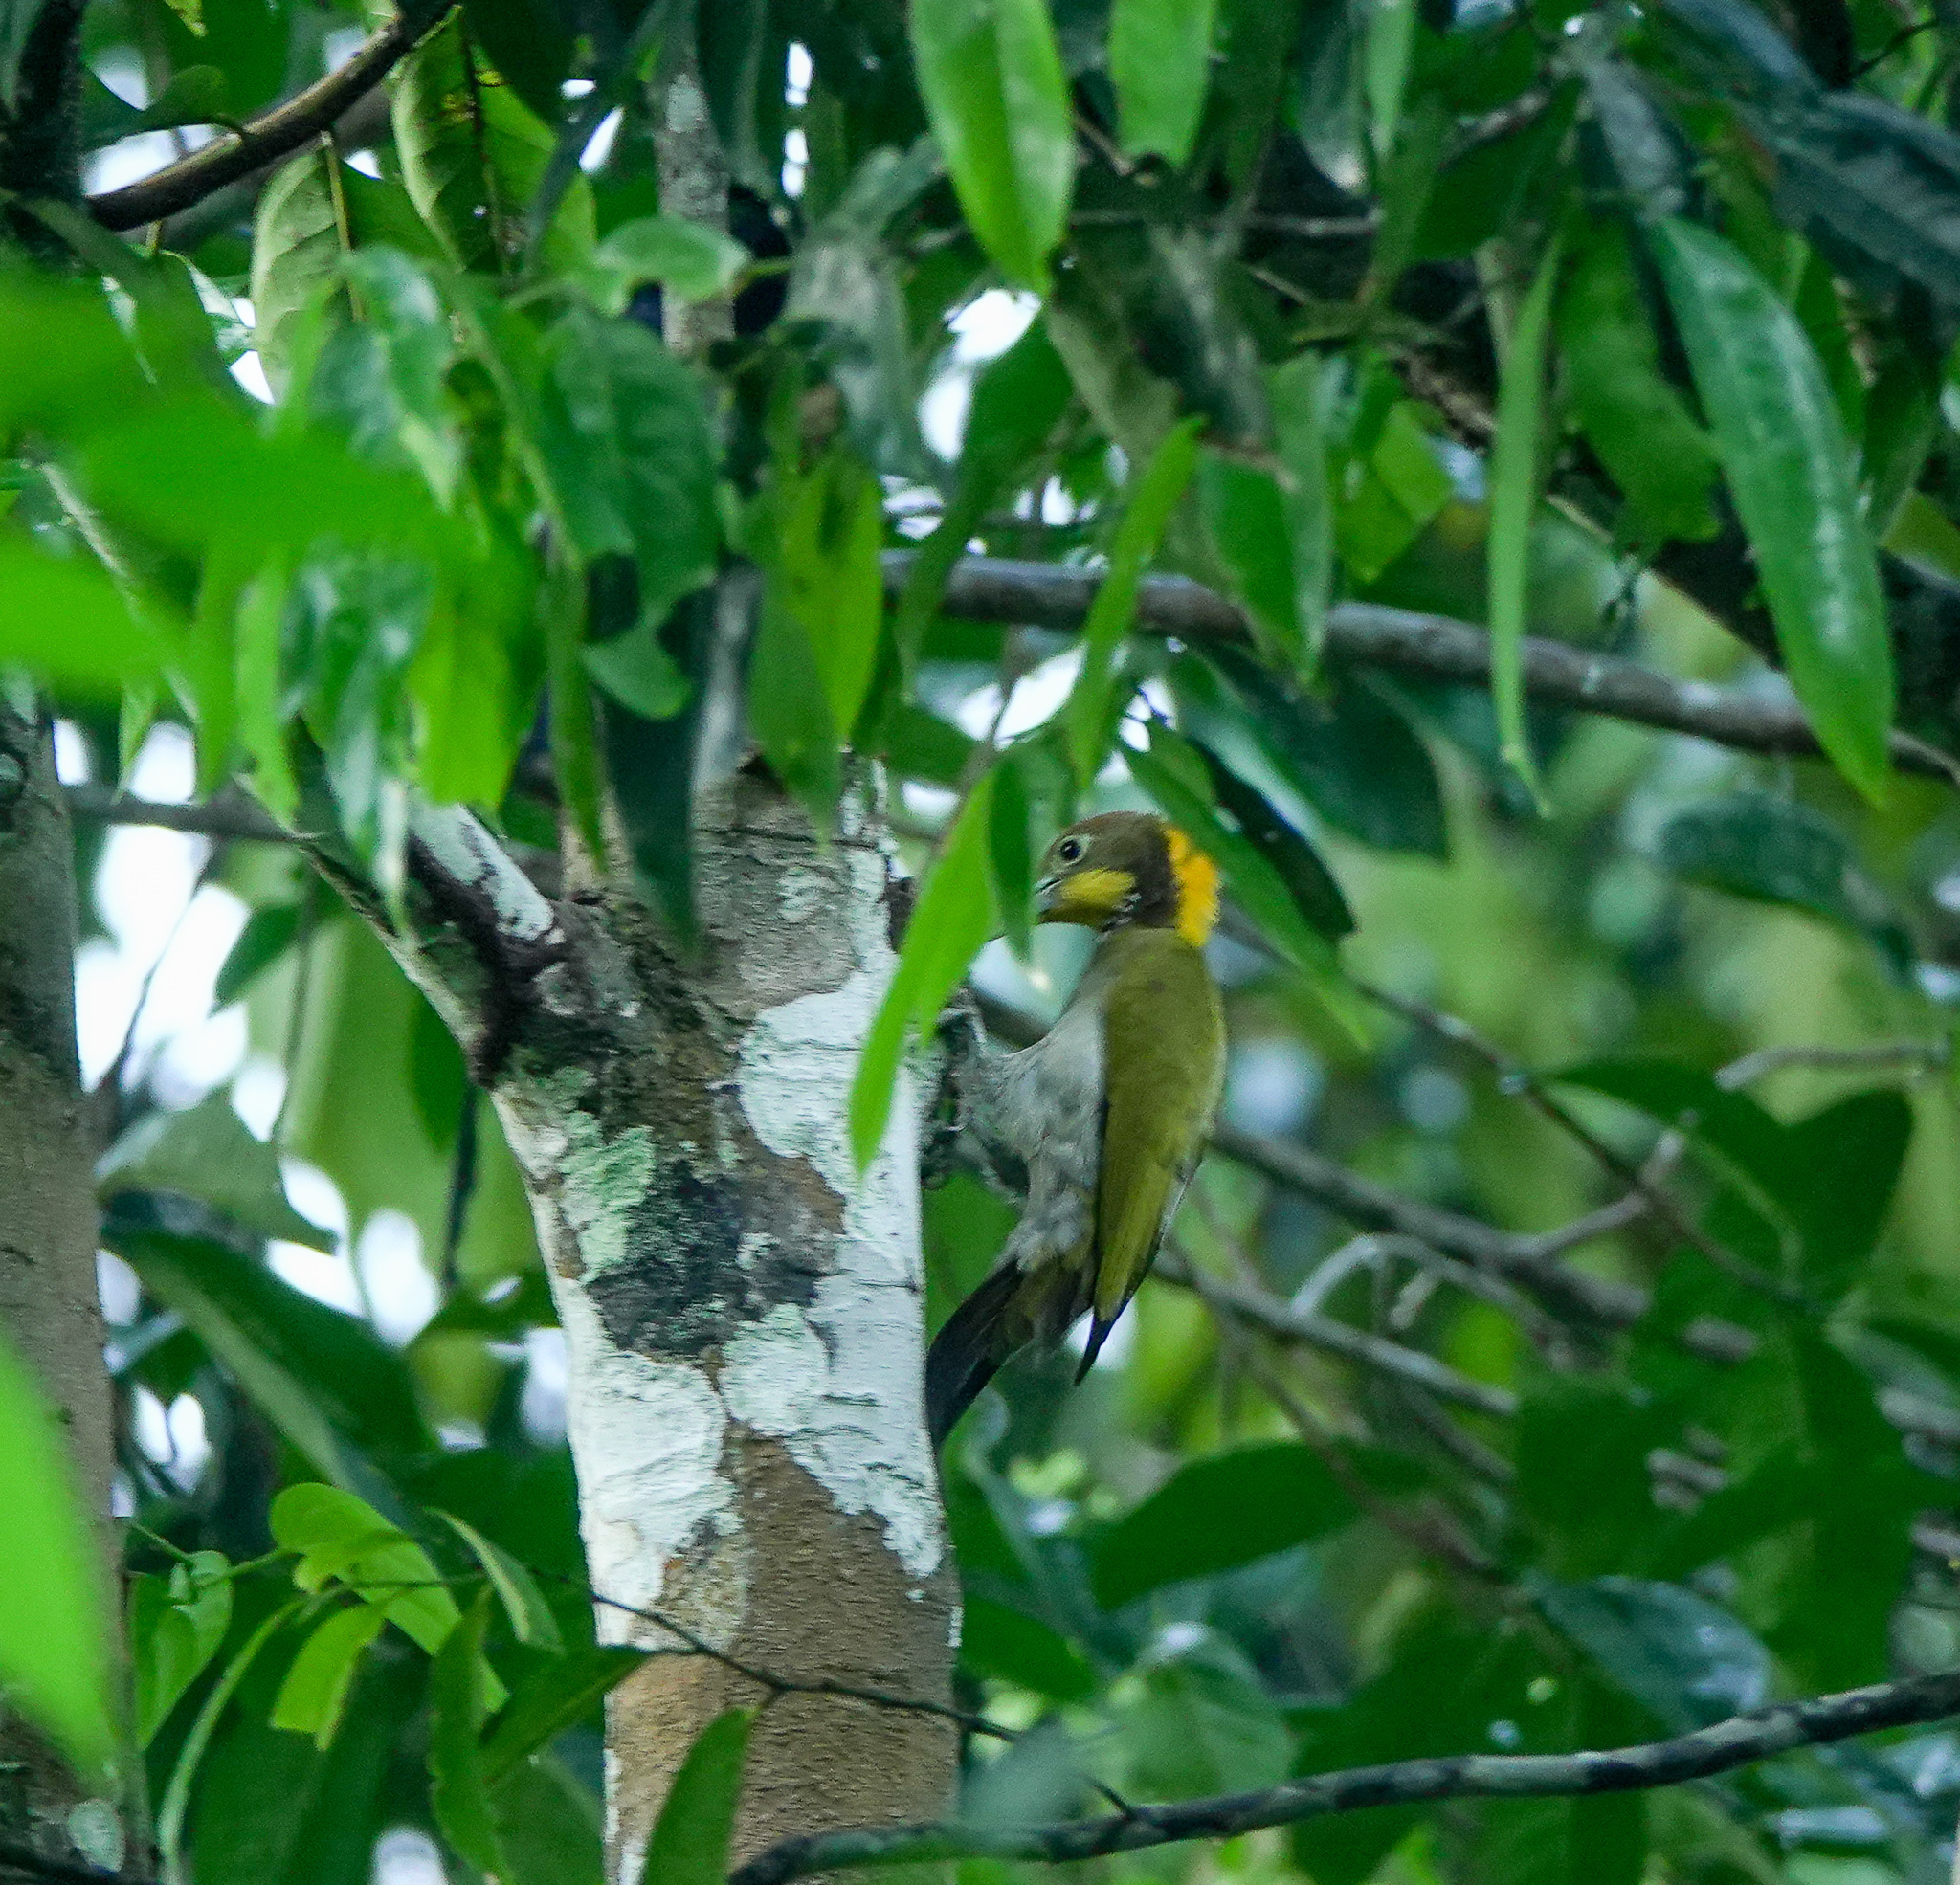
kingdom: Animalia
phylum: Chordata
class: Aves
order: Piciformes
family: Picidae
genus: Chrysophlegma
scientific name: Chrysophlegma flavinucha
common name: Greater yellownape
